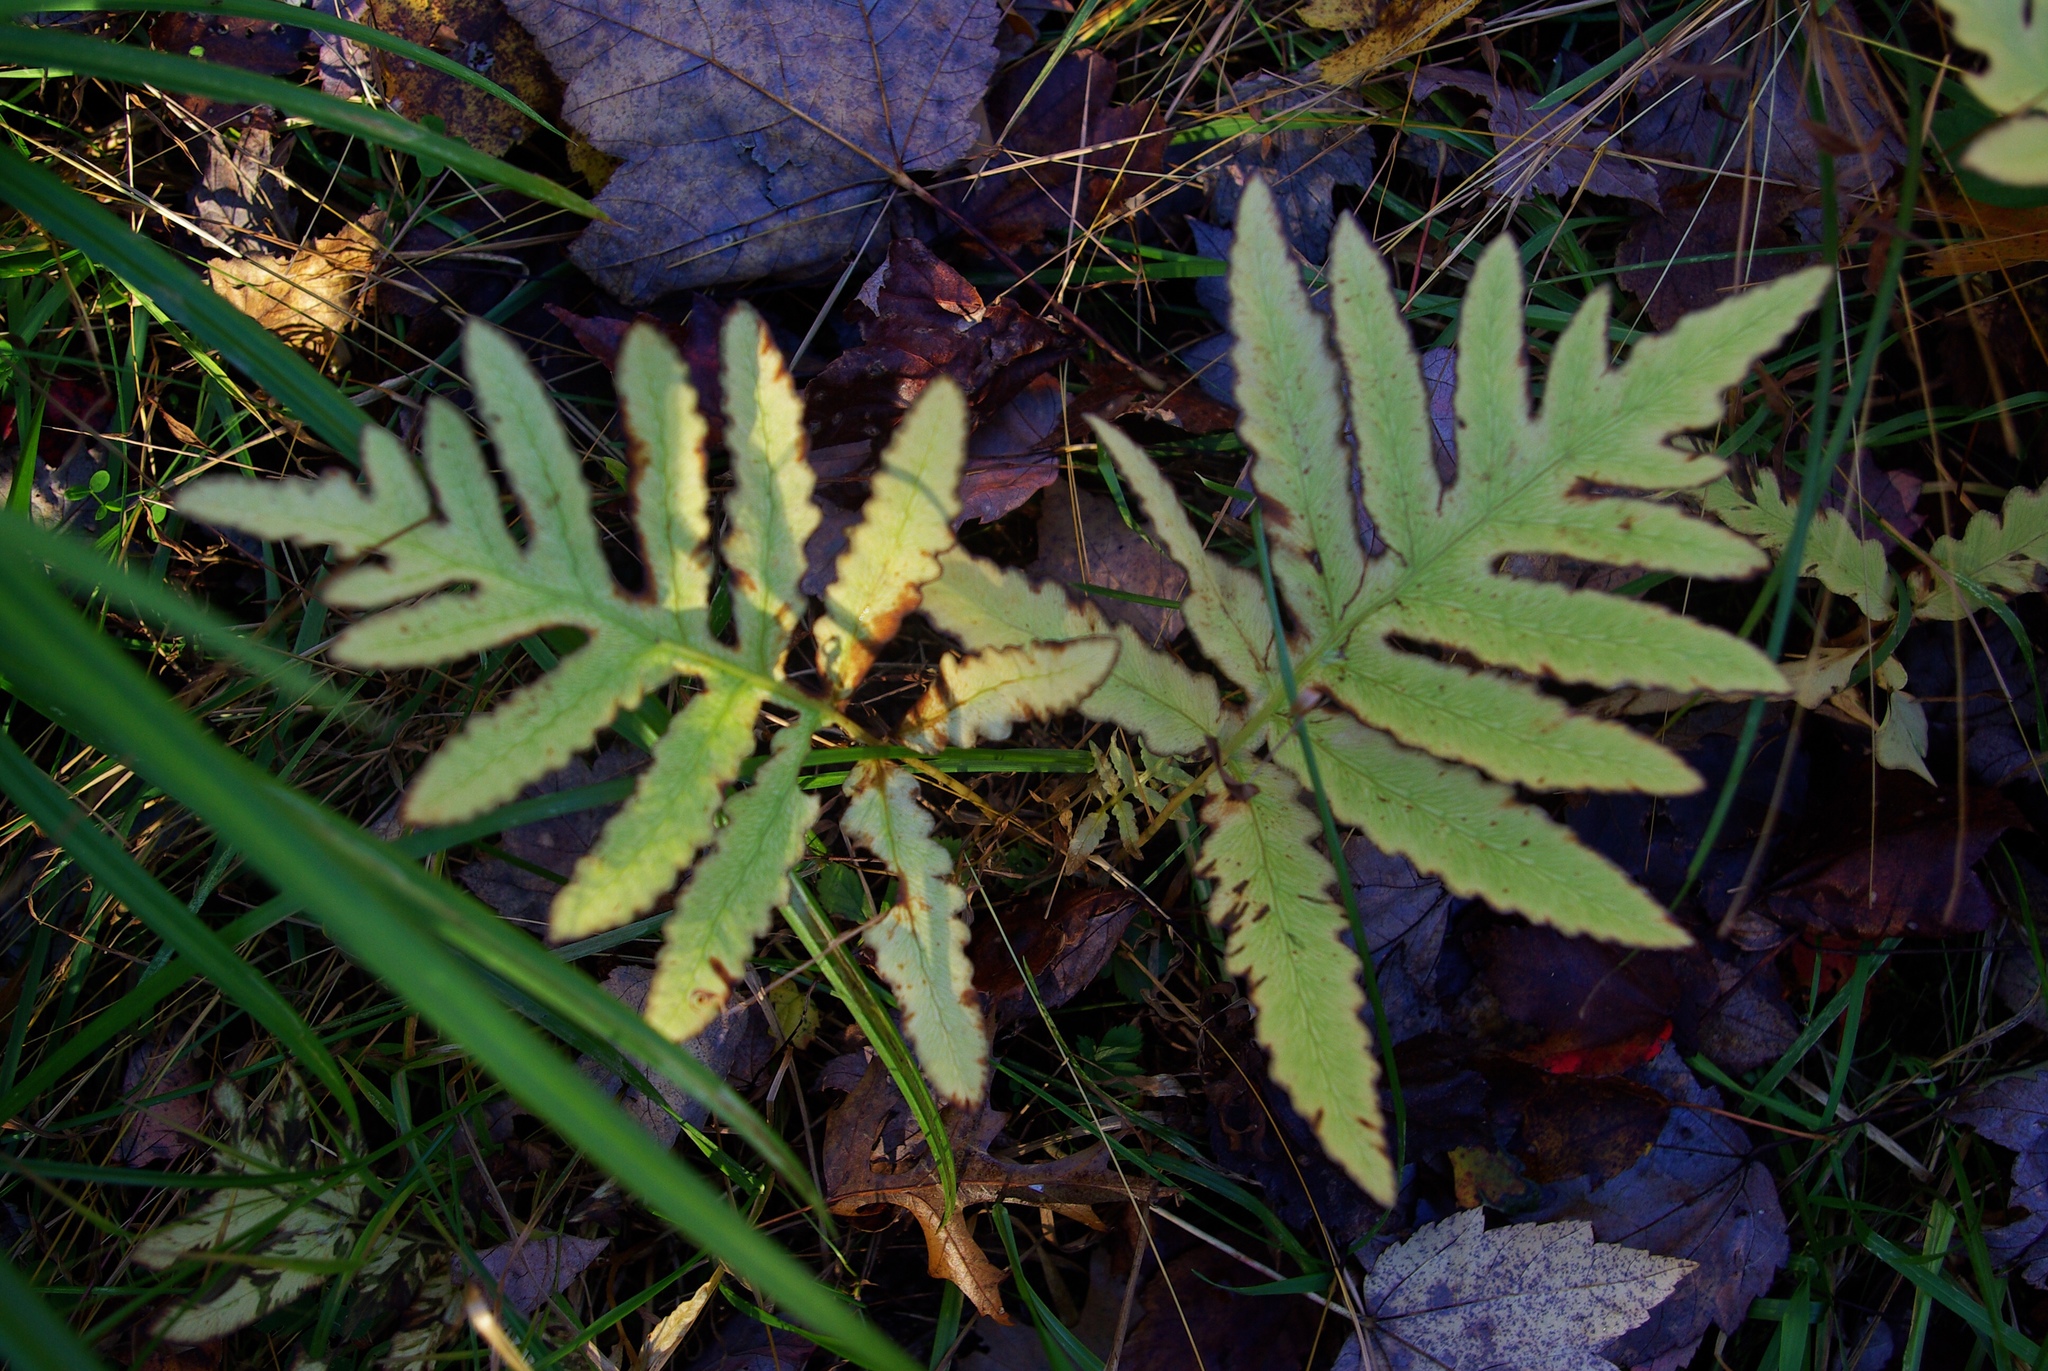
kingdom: Plantae
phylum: Tracheophyta
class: Polypodiopsida
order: Polypodiales
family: Onocleaceae
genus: Onoclea
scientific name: Onoclea sensibilis
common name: Sensitive fern
